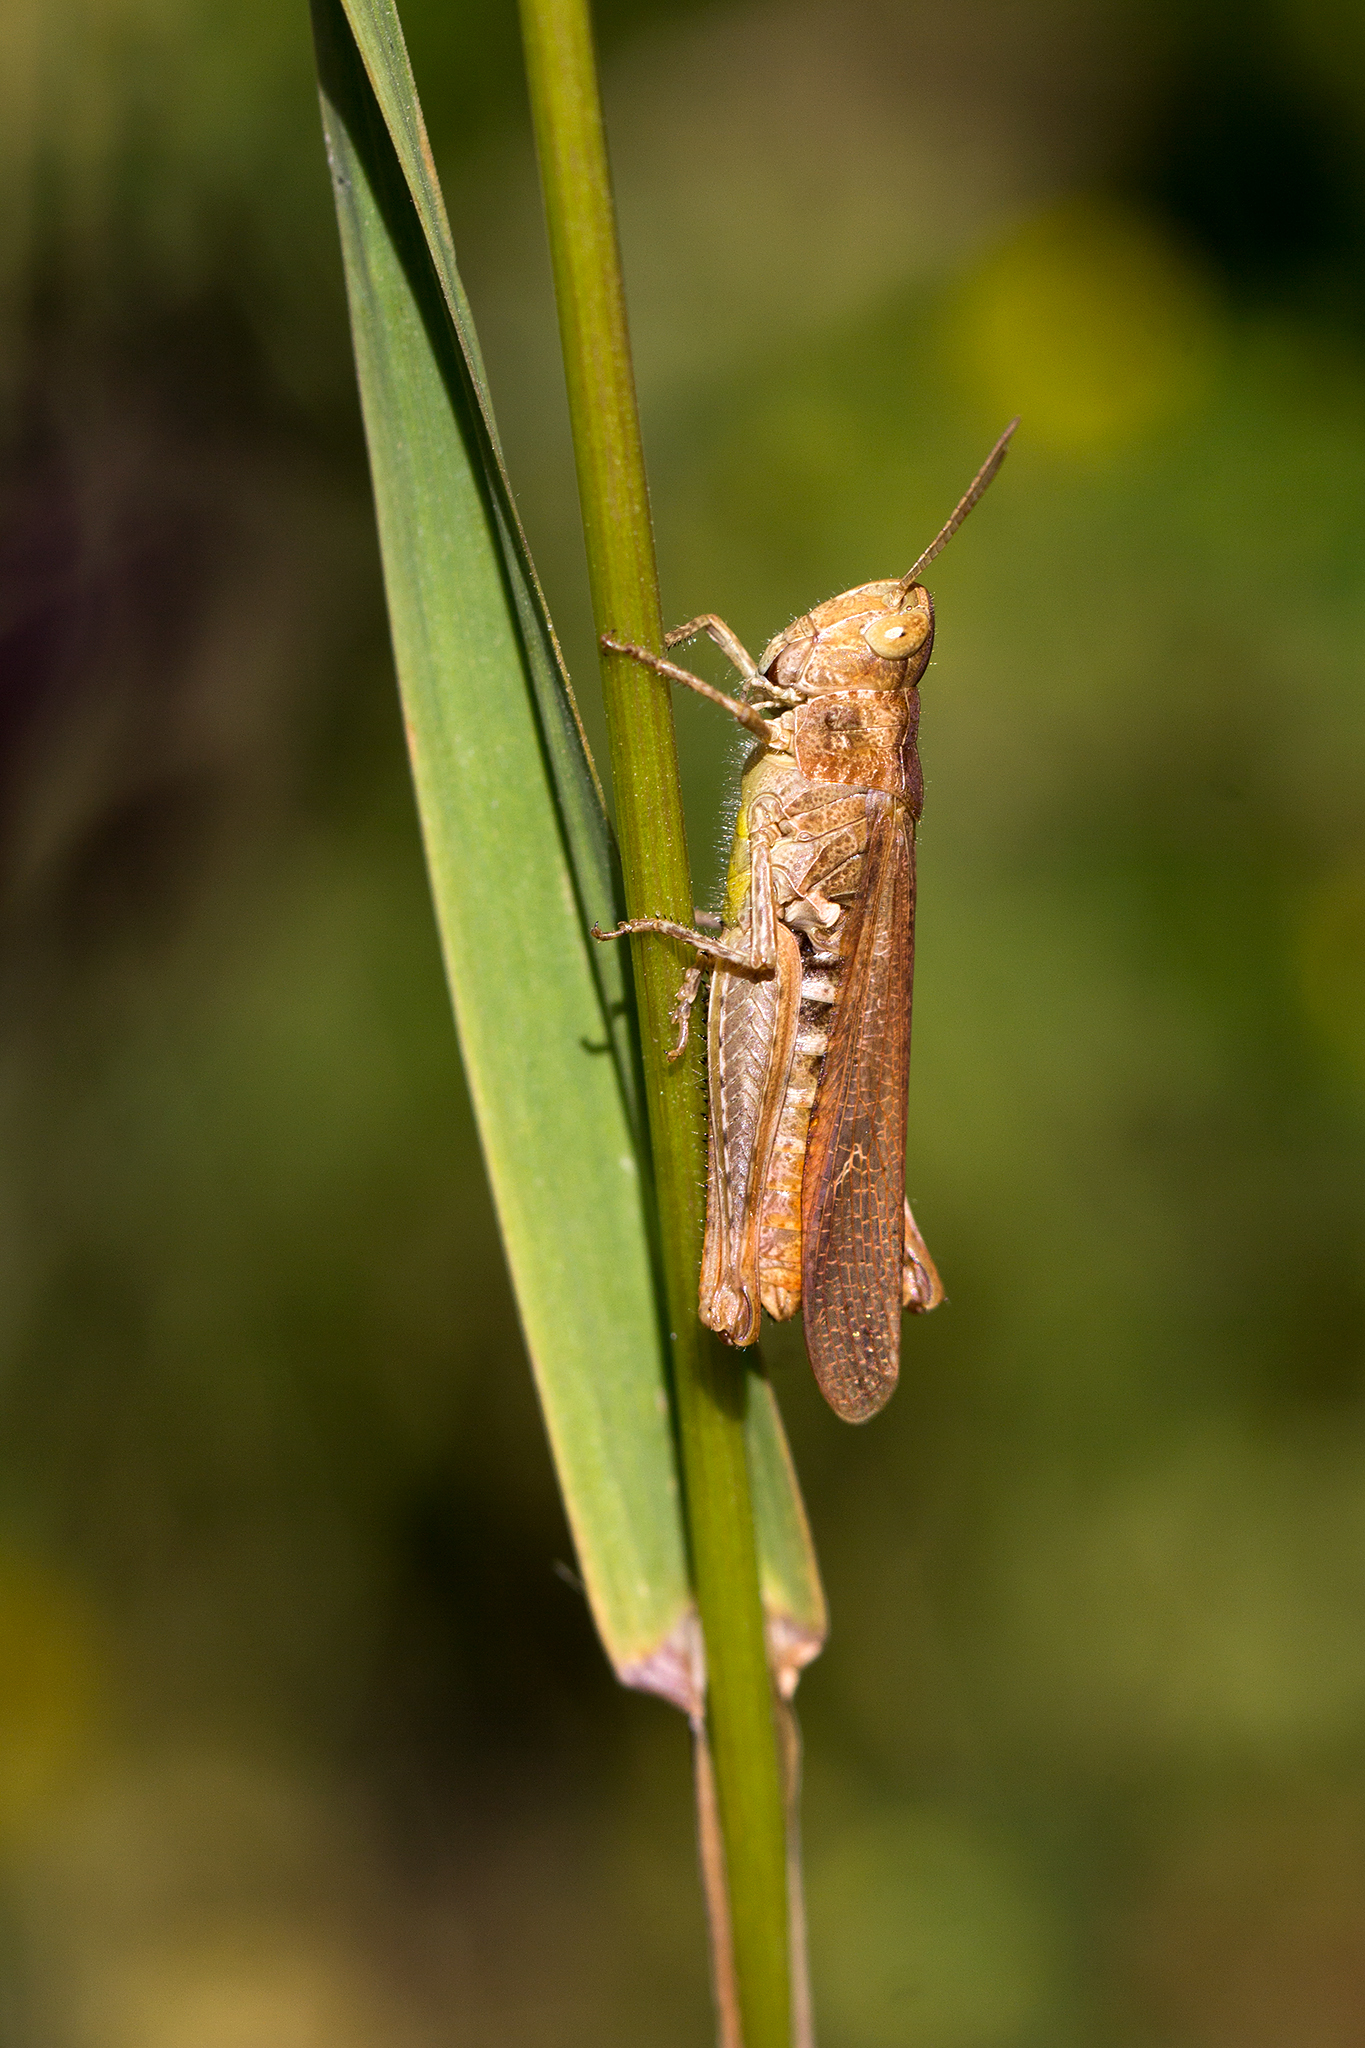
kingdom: Animalia
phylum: Arthropoda
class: Insecta
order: Orthoptera
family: Acrididae
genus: Chorthippus
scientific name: Chorthippus brunneus
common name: Field grasshopper
